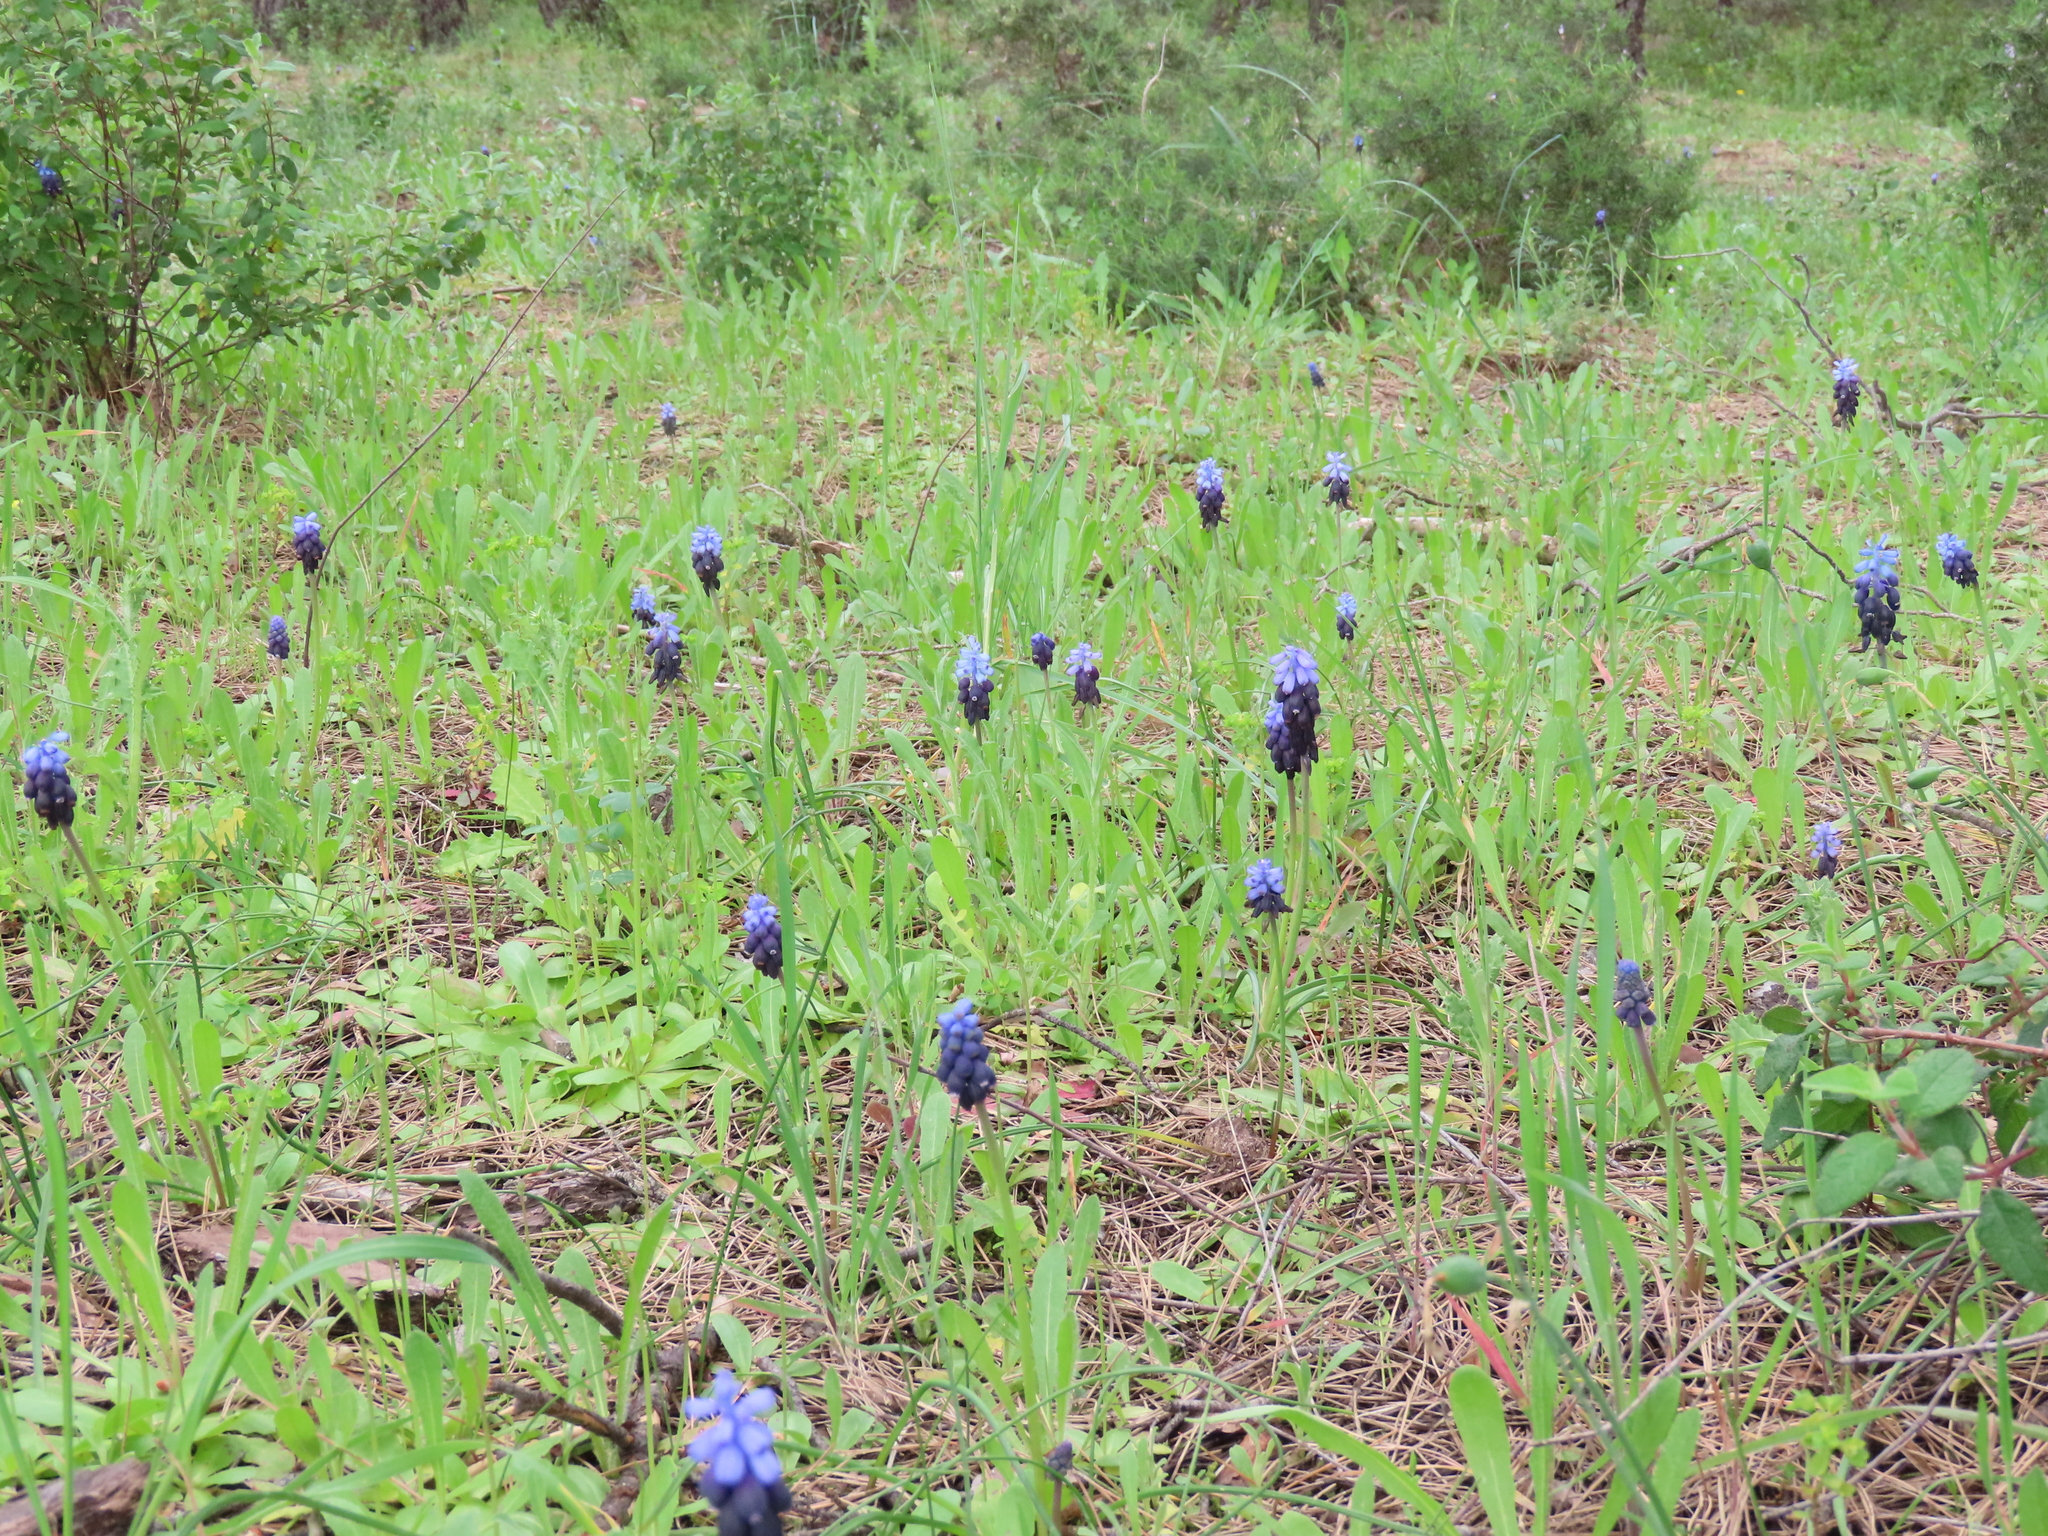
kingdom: Plantae
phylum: Tracheophyta
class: Liliopsida
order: Asparagales
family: Asparagaceae
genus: Muscari
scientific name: Muscari neglectum
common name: Grape-hyacinth
